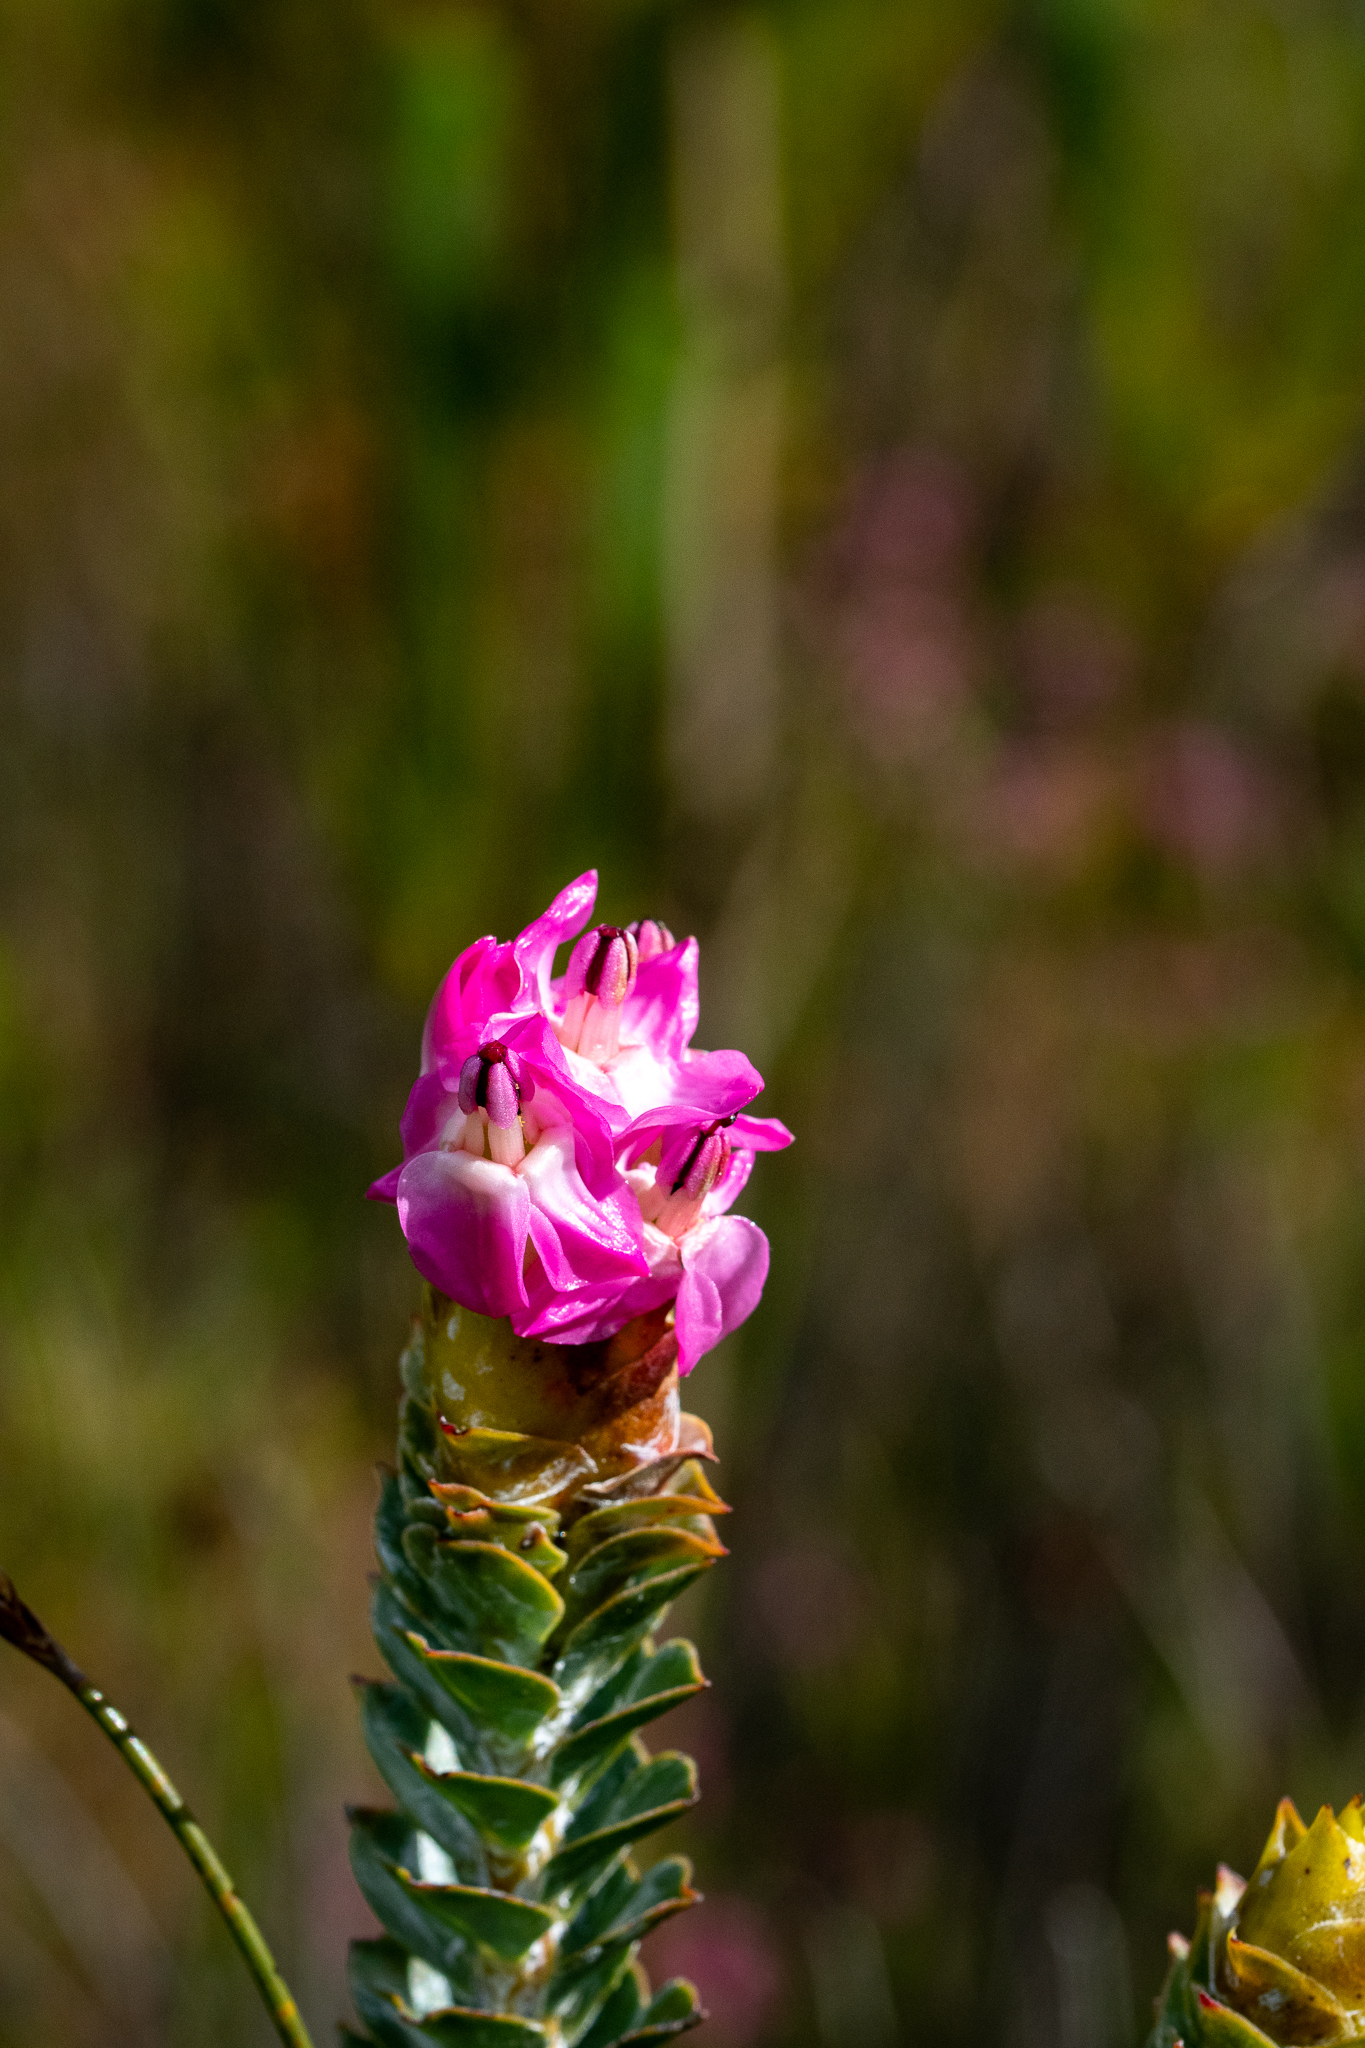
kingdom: Plantae
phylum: Tracheophyta
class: Magnoliopsida
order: Myrtales
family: Penaeaceae
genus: Saltera
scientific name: Saltera sarcocolla
